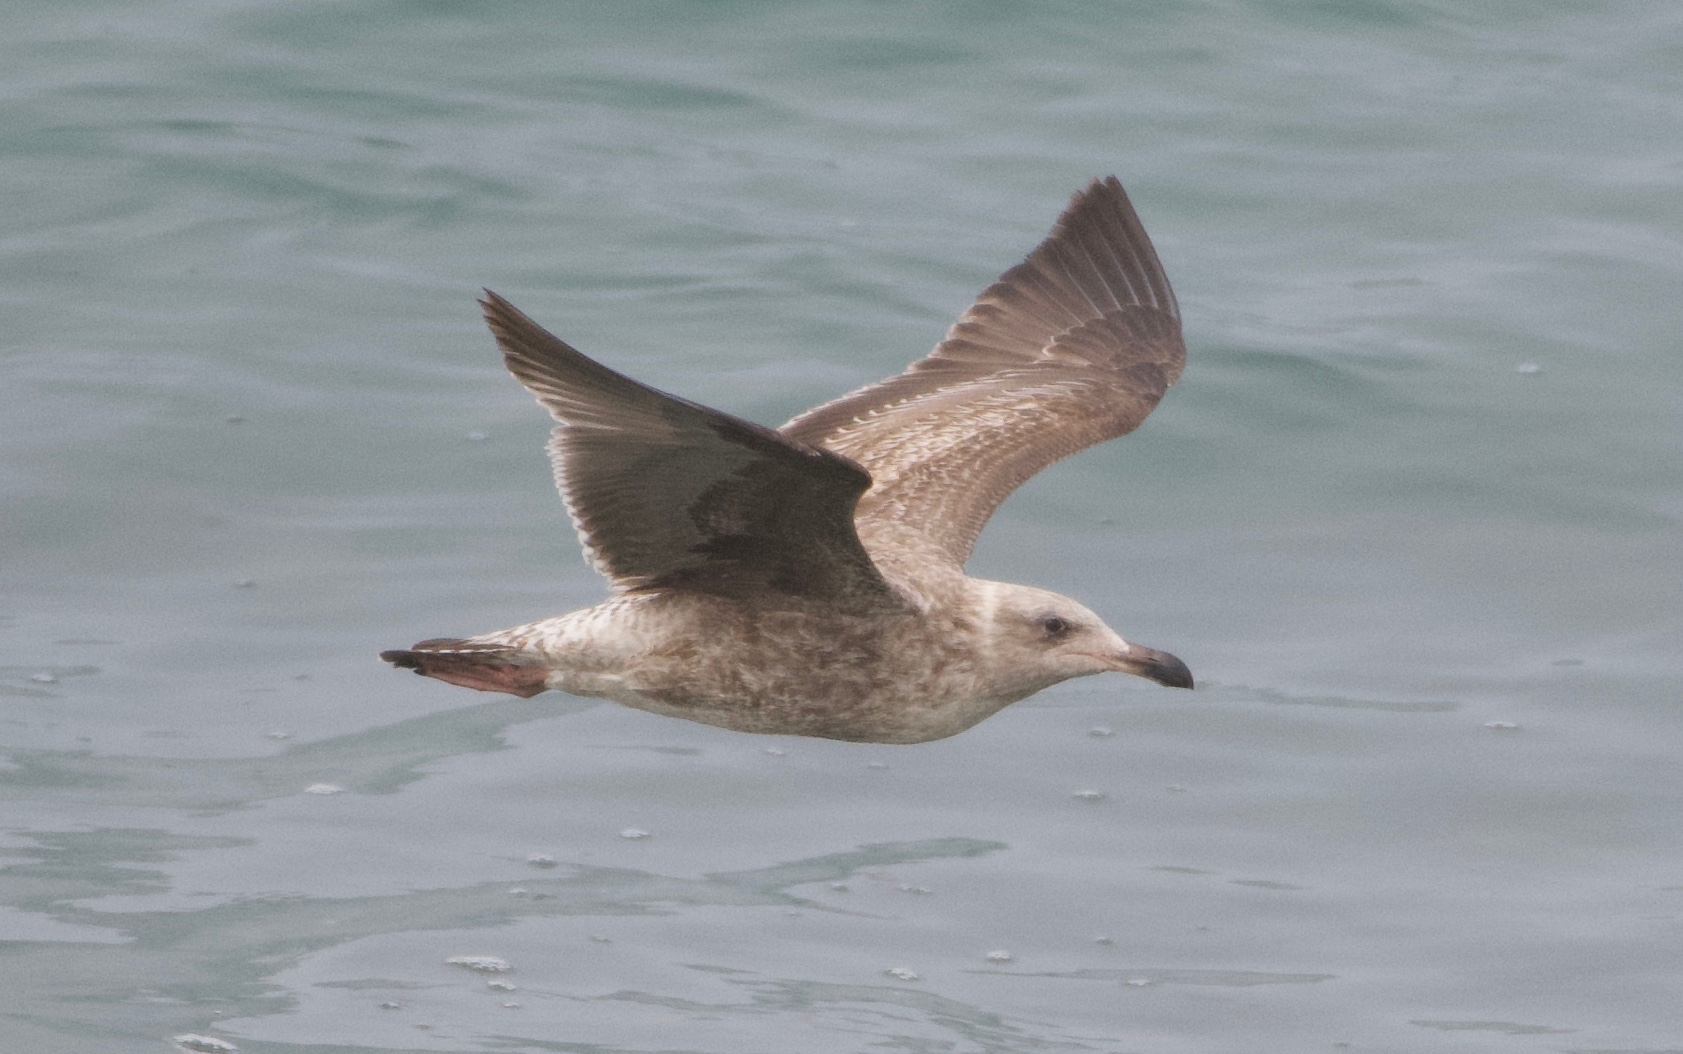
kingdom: Animalia
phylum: Chordata
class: Aves
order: Charadriiformes
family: Laridae
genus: Larus
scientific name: Larus occidentalis
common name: Western gull
